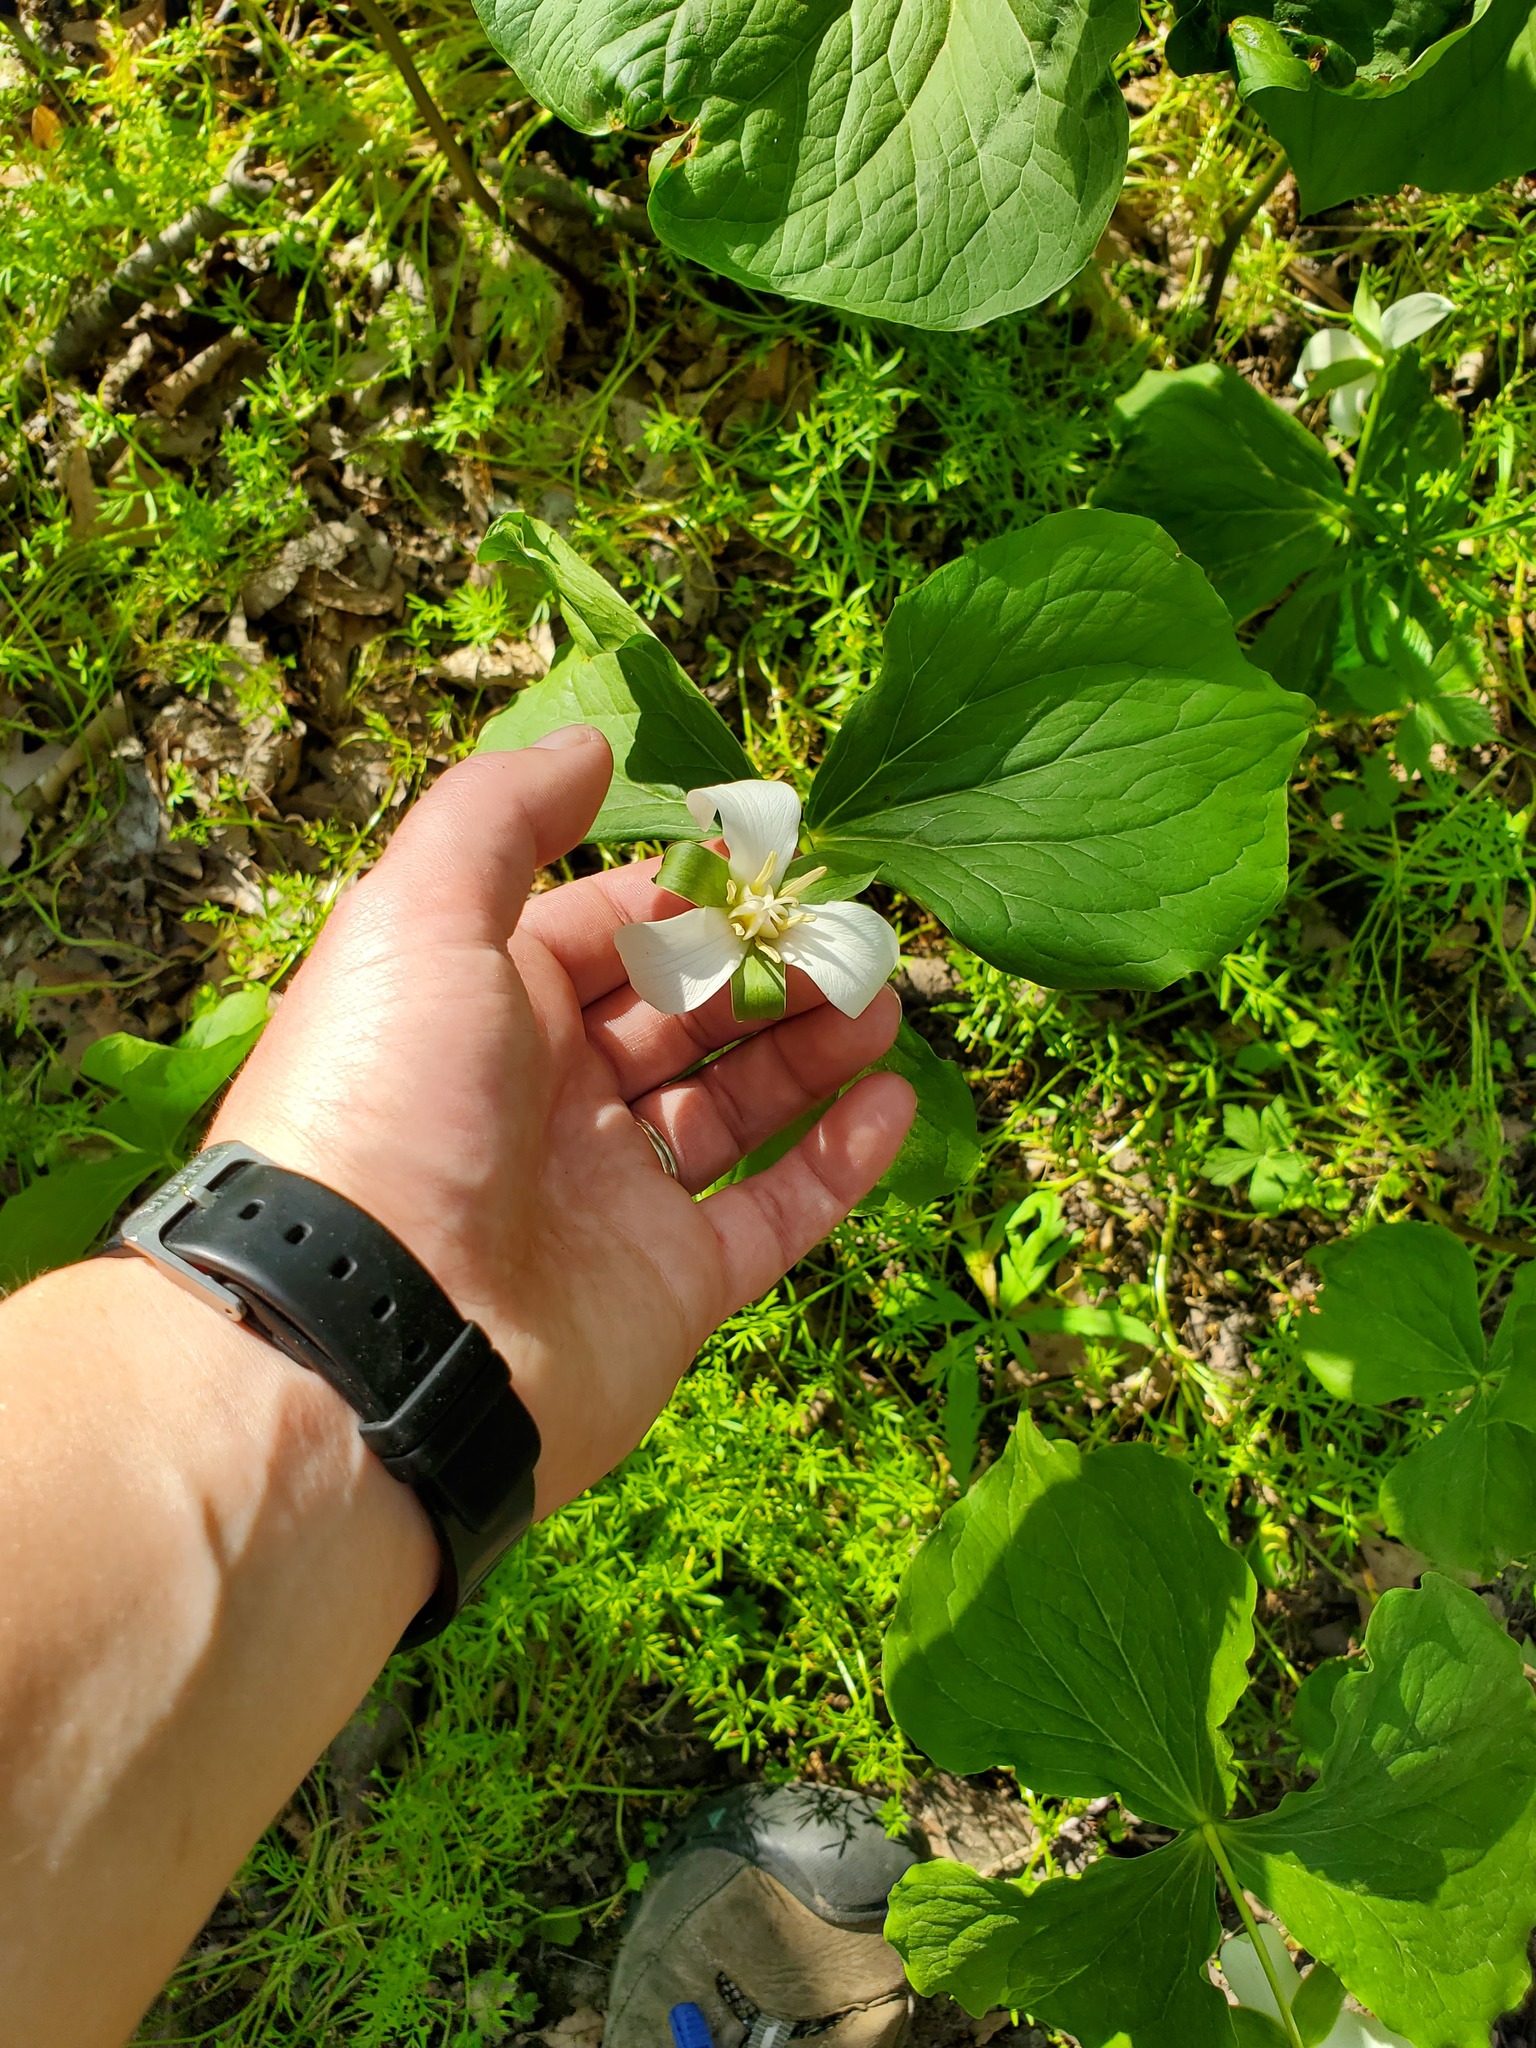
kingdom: Plantae
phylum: Tracheophyta
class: Liliopsida
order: Liliales
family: Melanthiaceae
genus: Trillium
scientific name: Trillium flexipes
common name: Drooping trillium
